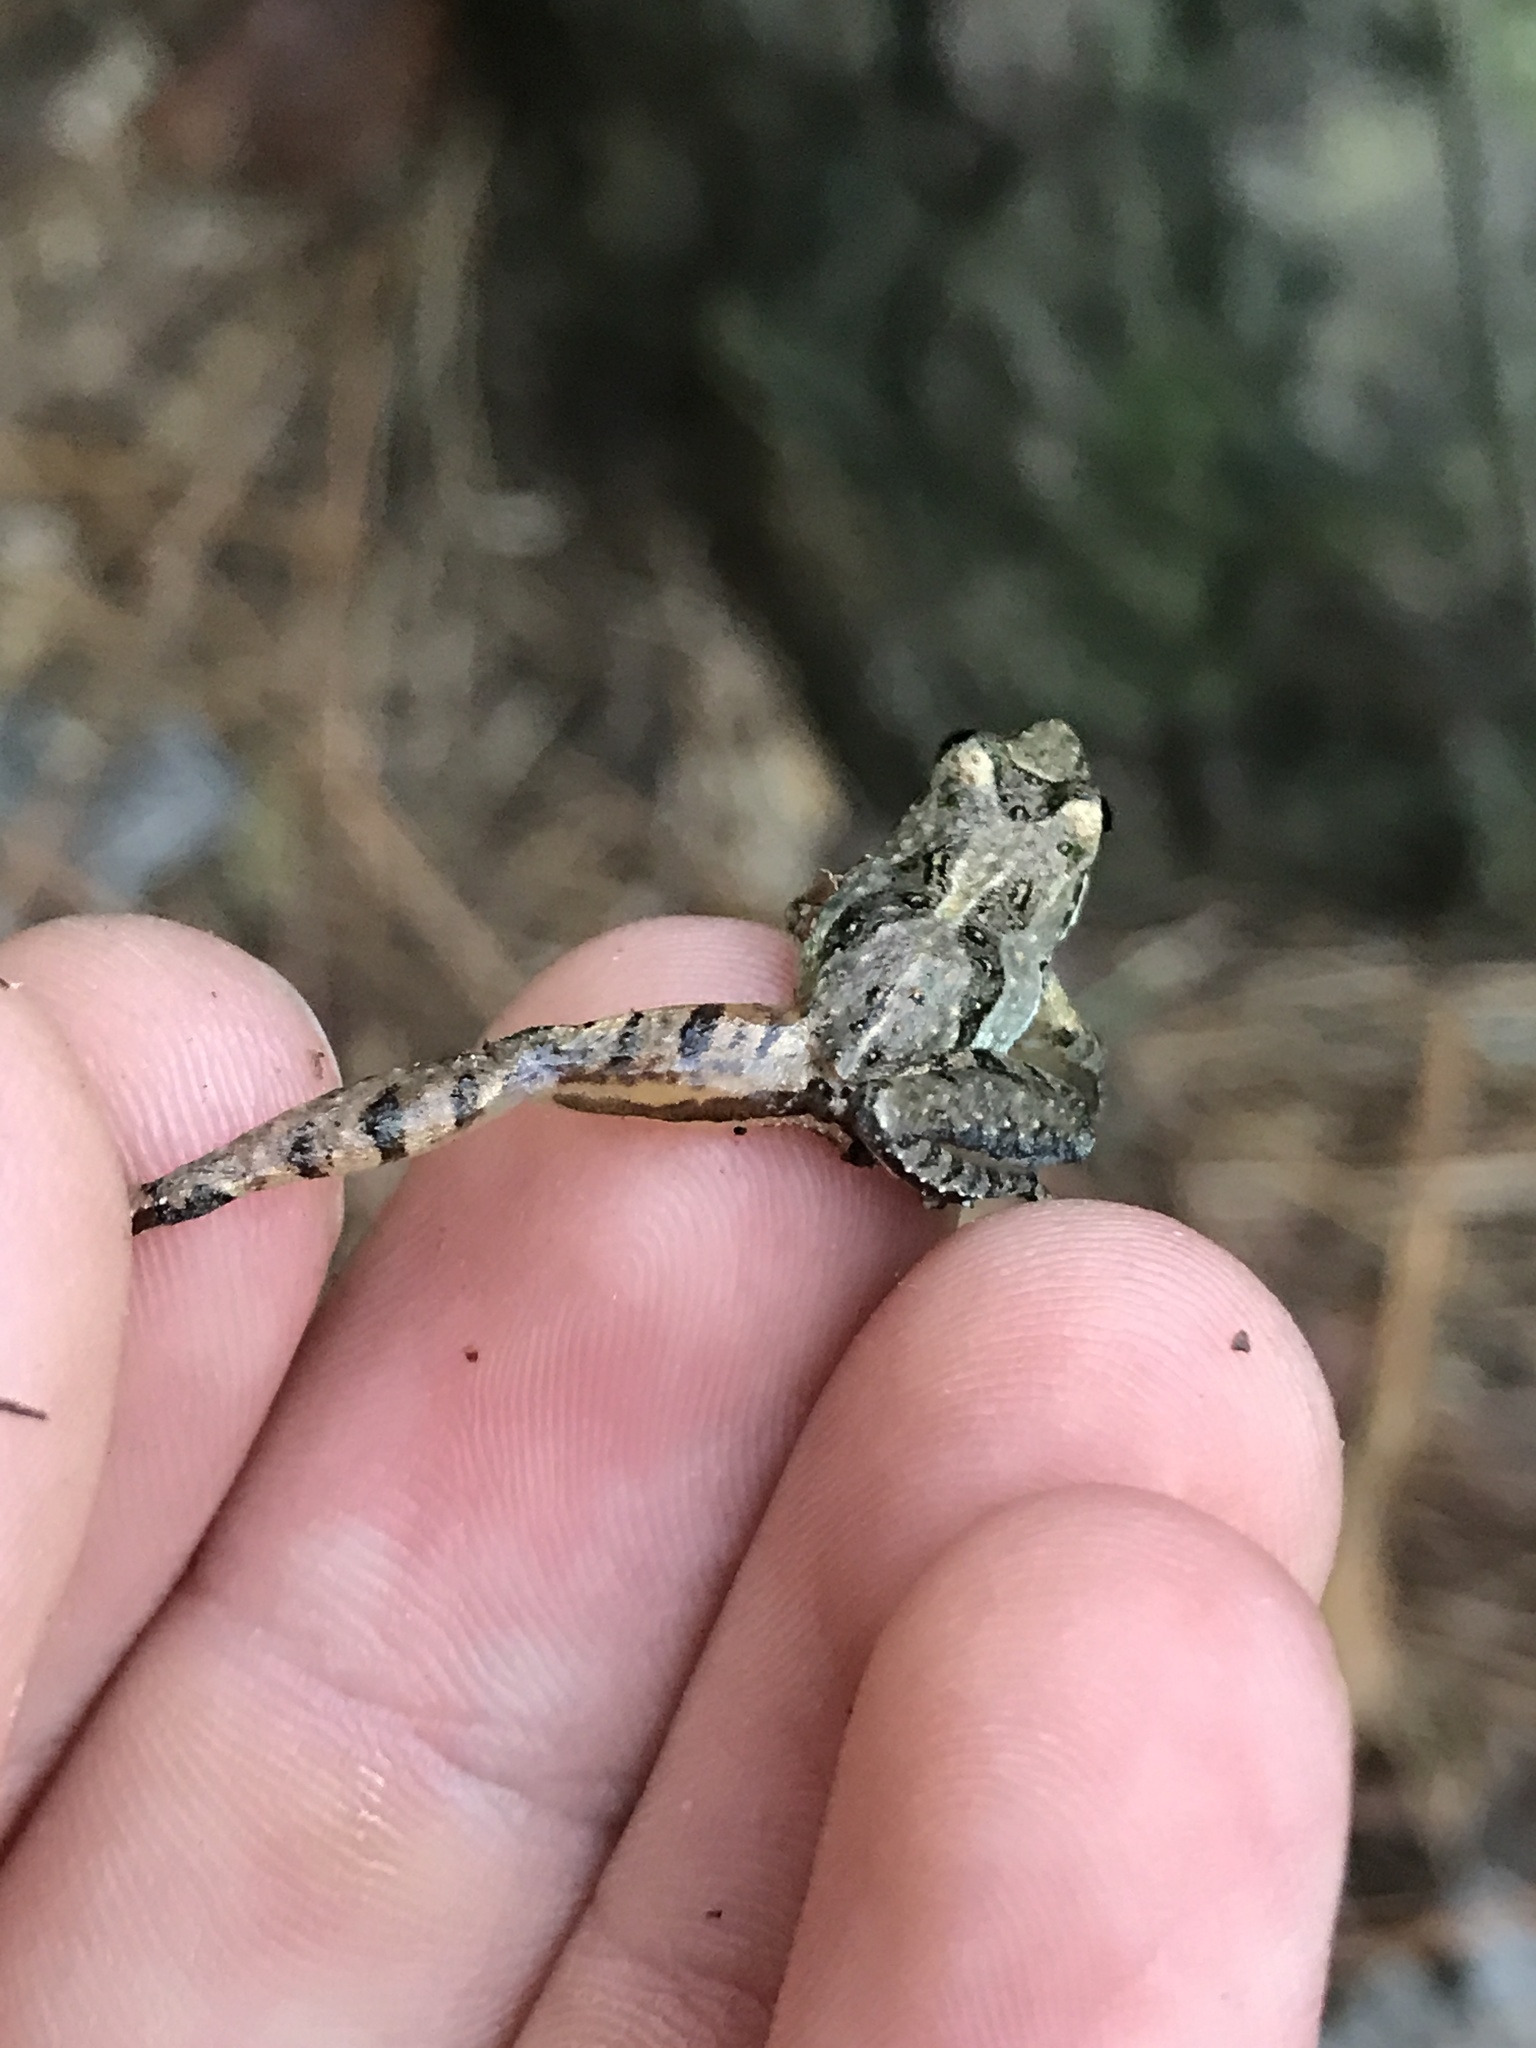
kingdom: Animalia
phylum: Chordata
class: Amphibia
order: Anura
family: Hylidae
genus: Acris
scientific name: Acris gryllus
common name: Southern cricket frog
